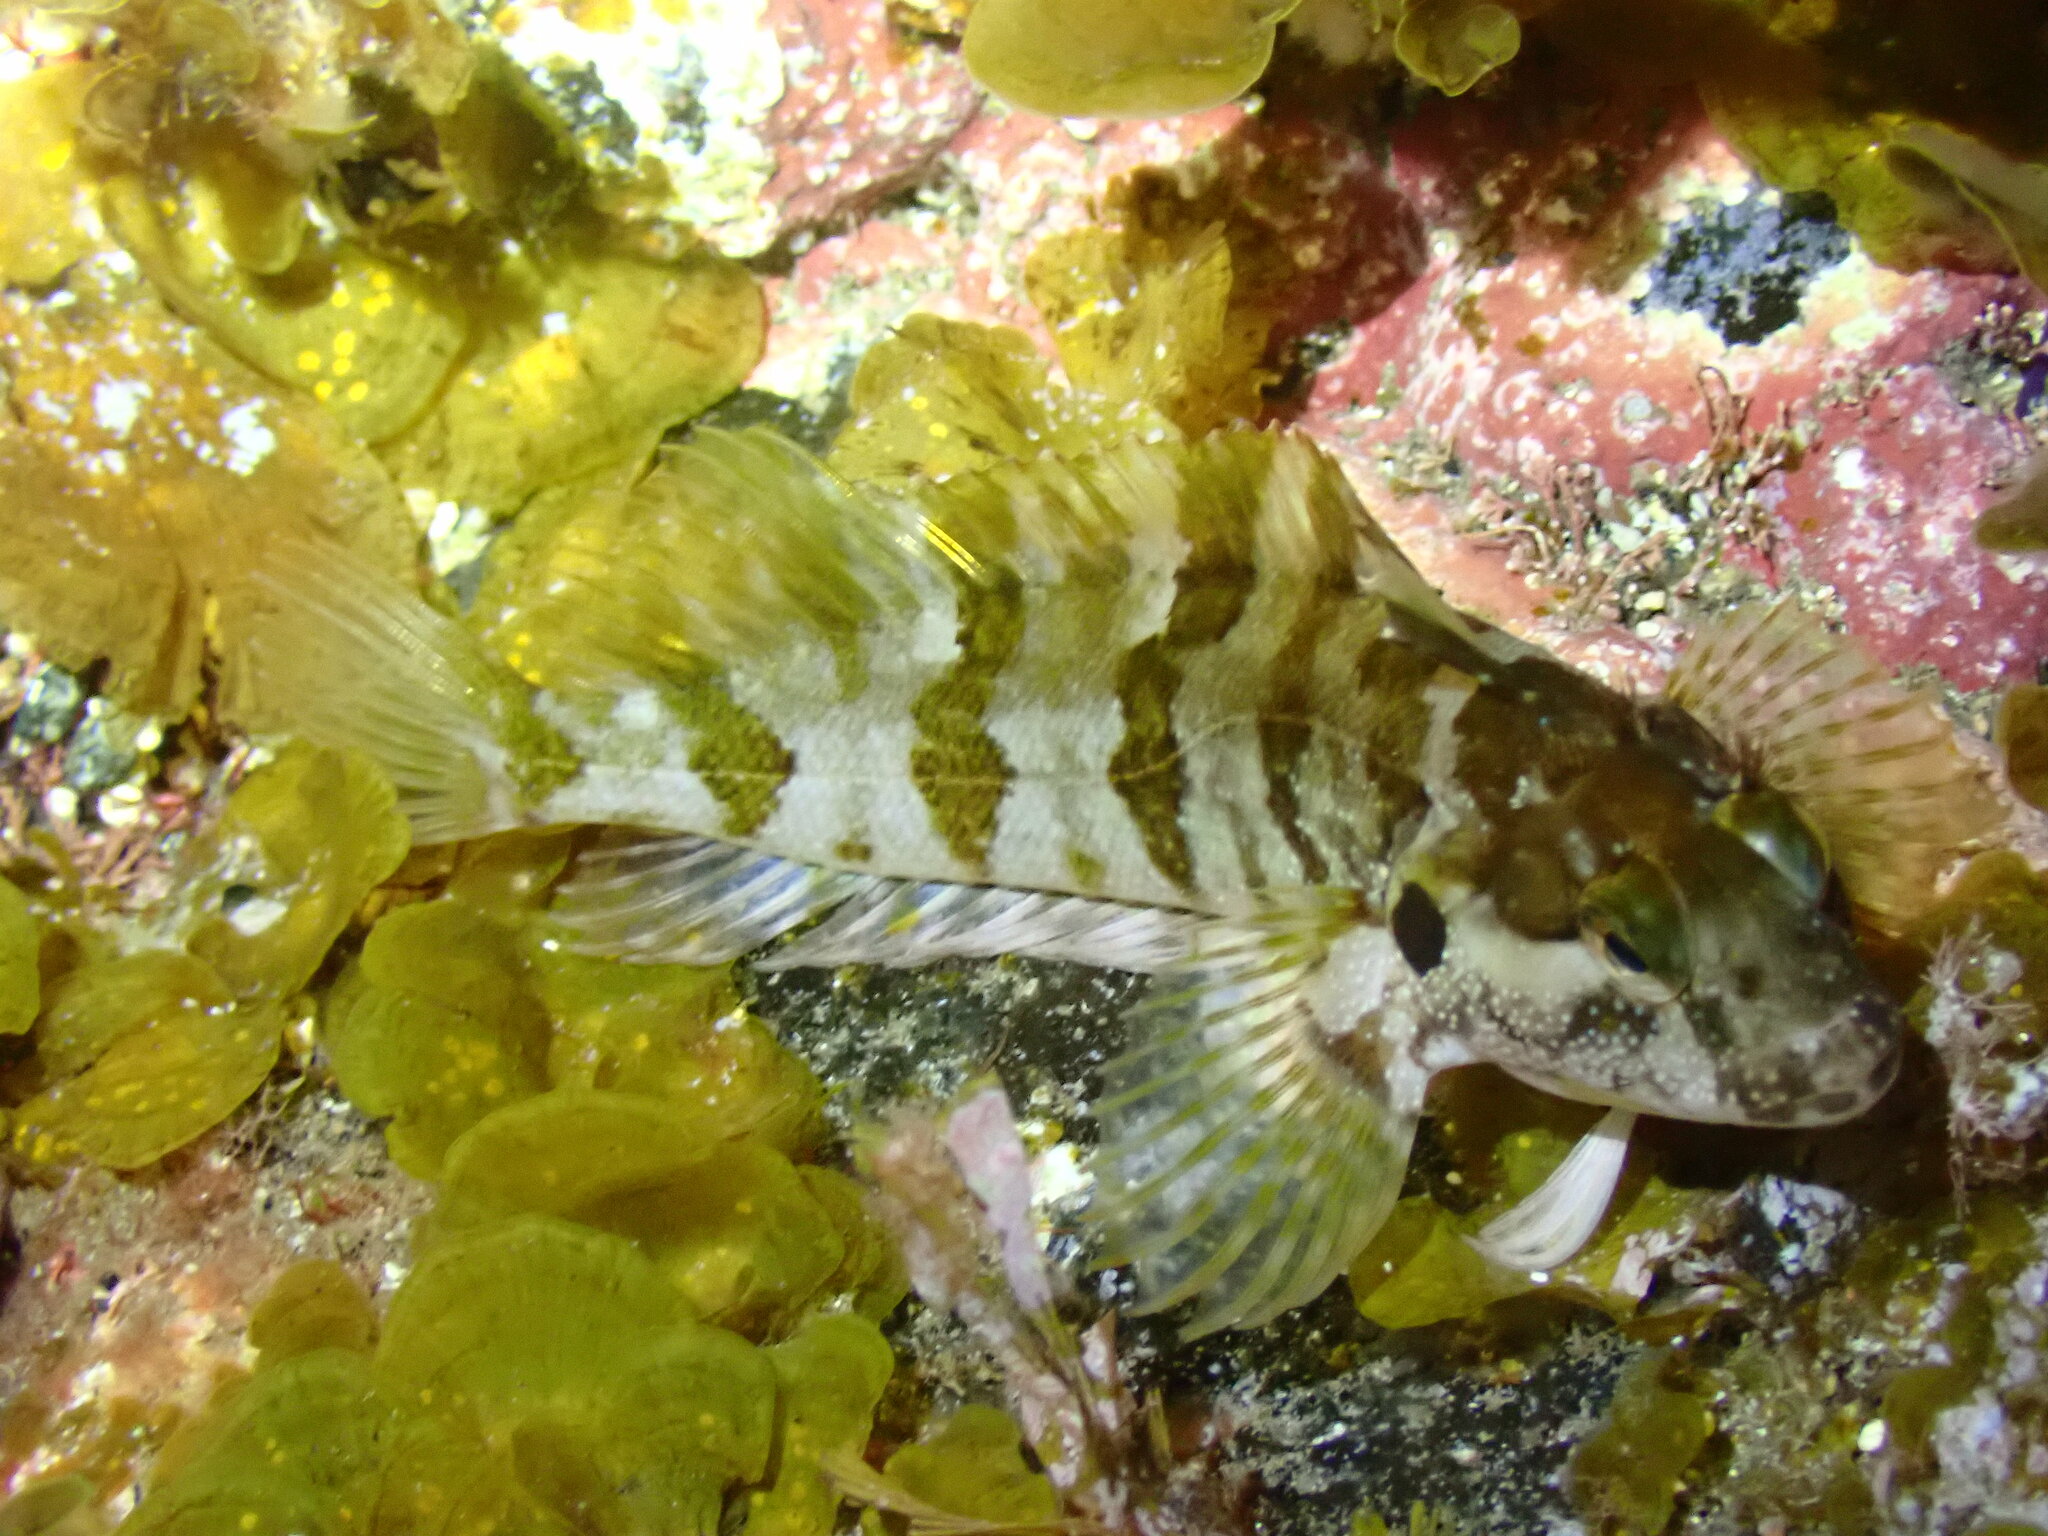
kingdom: Animalia
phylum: Chordata
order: Perciformes
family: Labrisomidae
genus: Labrisomus
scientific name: Labrisomus nuchipinnis
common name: Hairy blenny
